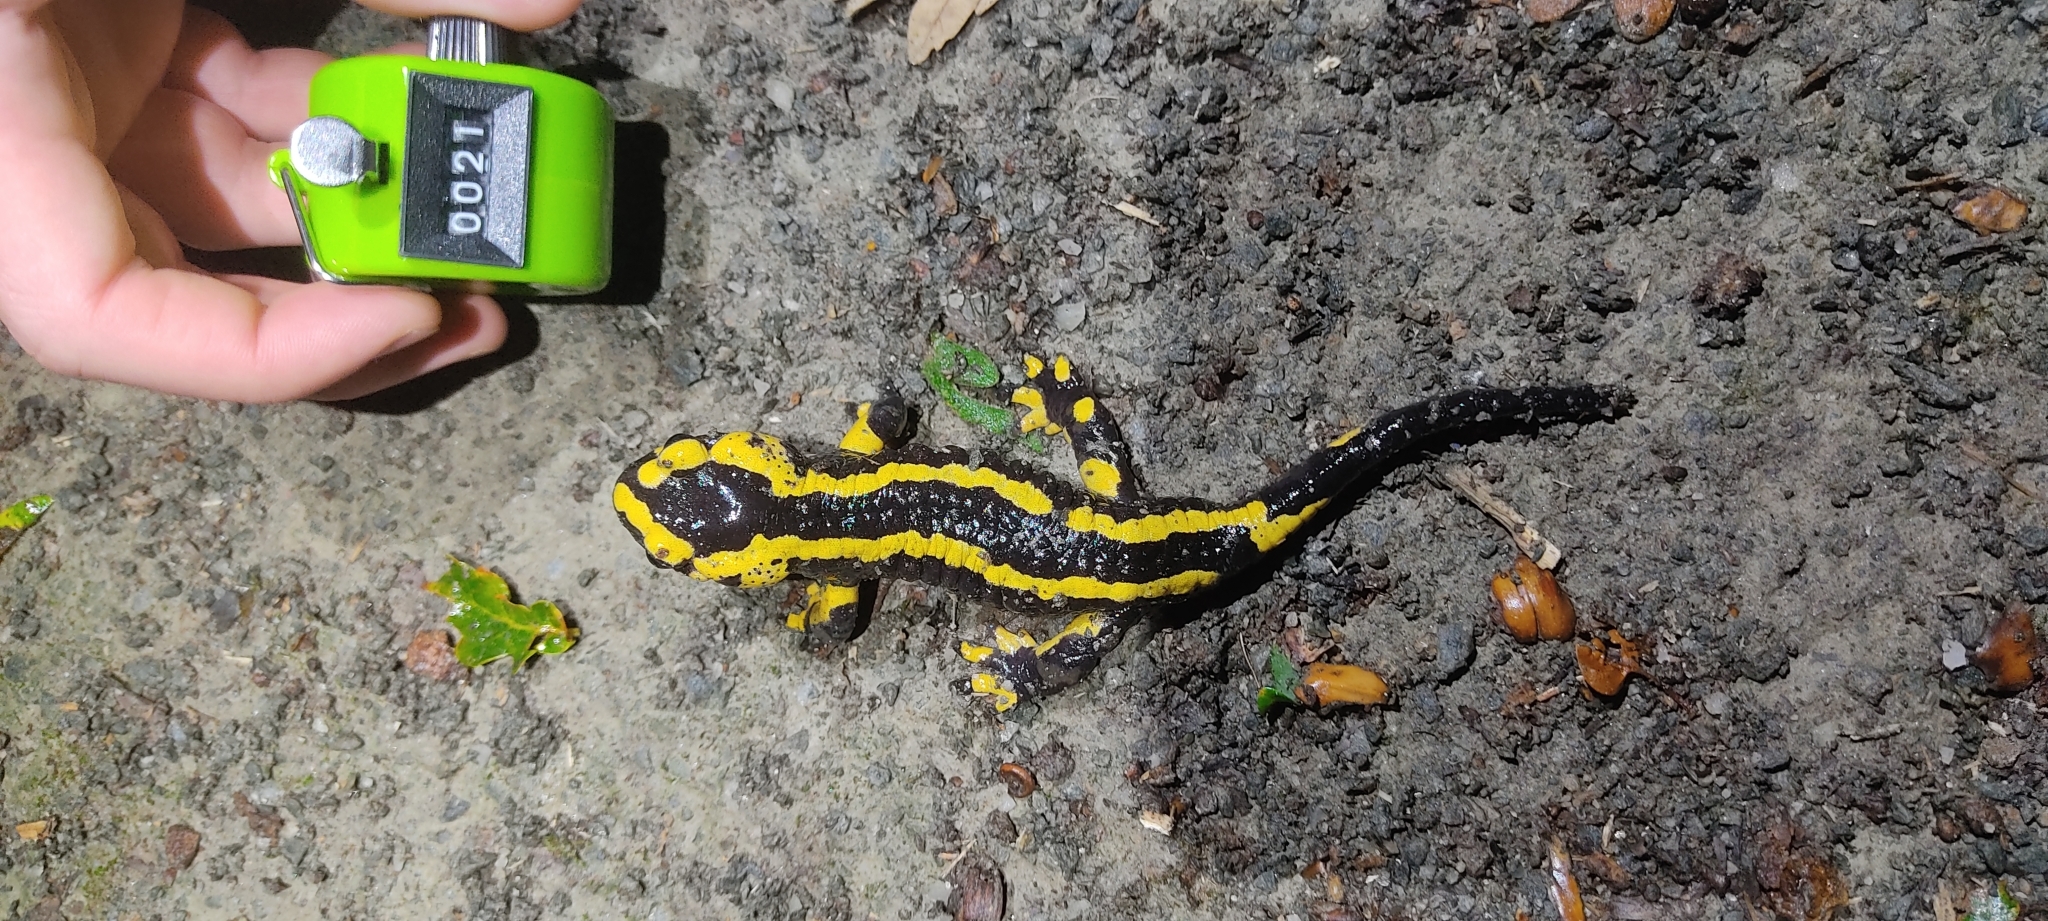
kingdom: Animalia
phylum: Chordata
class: Amphibia
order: Caudata
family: Salamandridae
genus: Salamandra
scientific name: Salamandra salamandra
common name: Fire salamander
